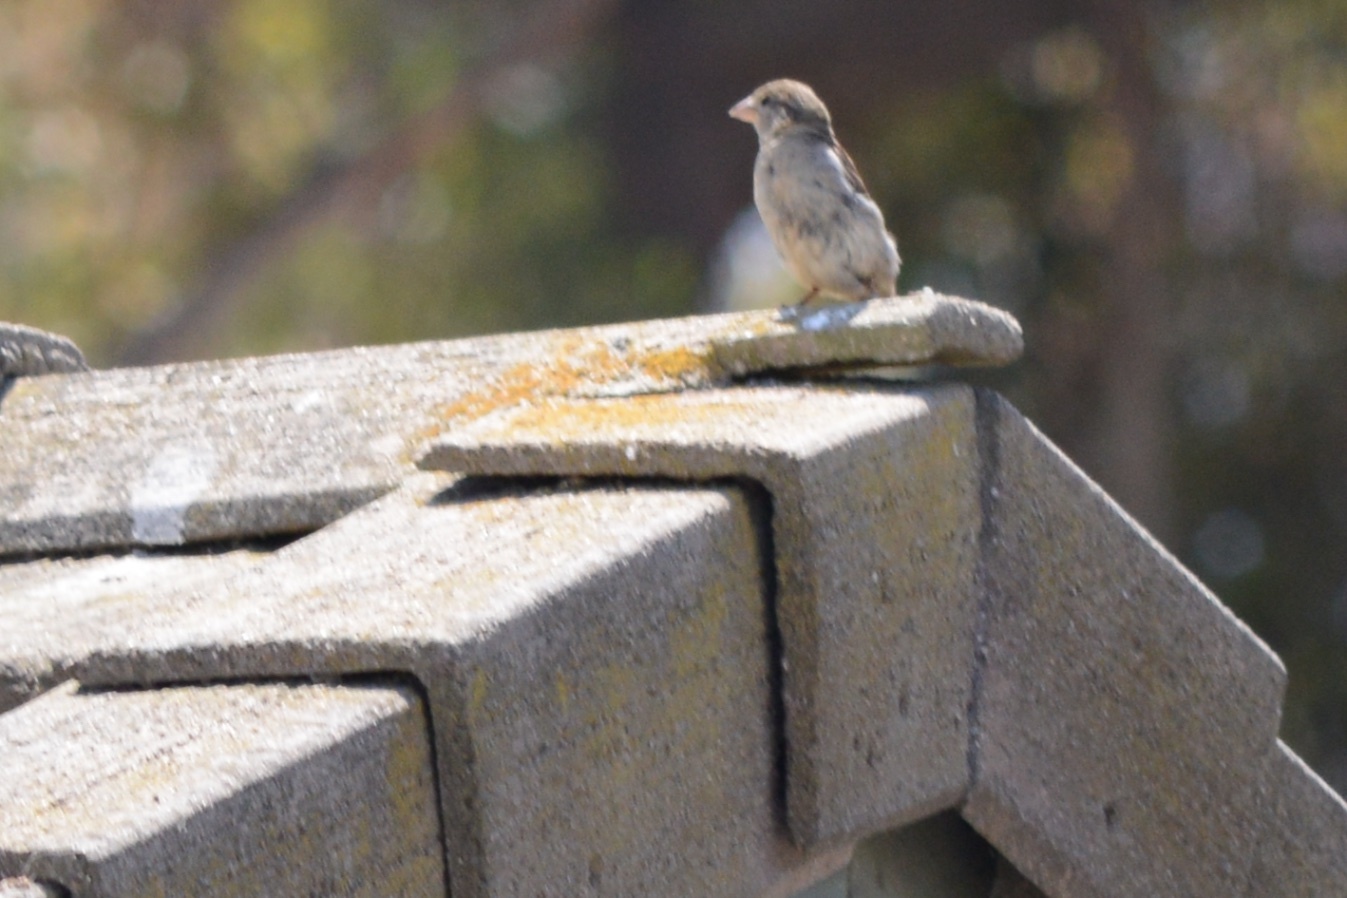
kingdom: Animalia
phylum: Chordata
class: Aves
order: Passeriformes
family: Passeridae
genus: Passer
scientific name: Passer domesticus
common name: House sparrow
